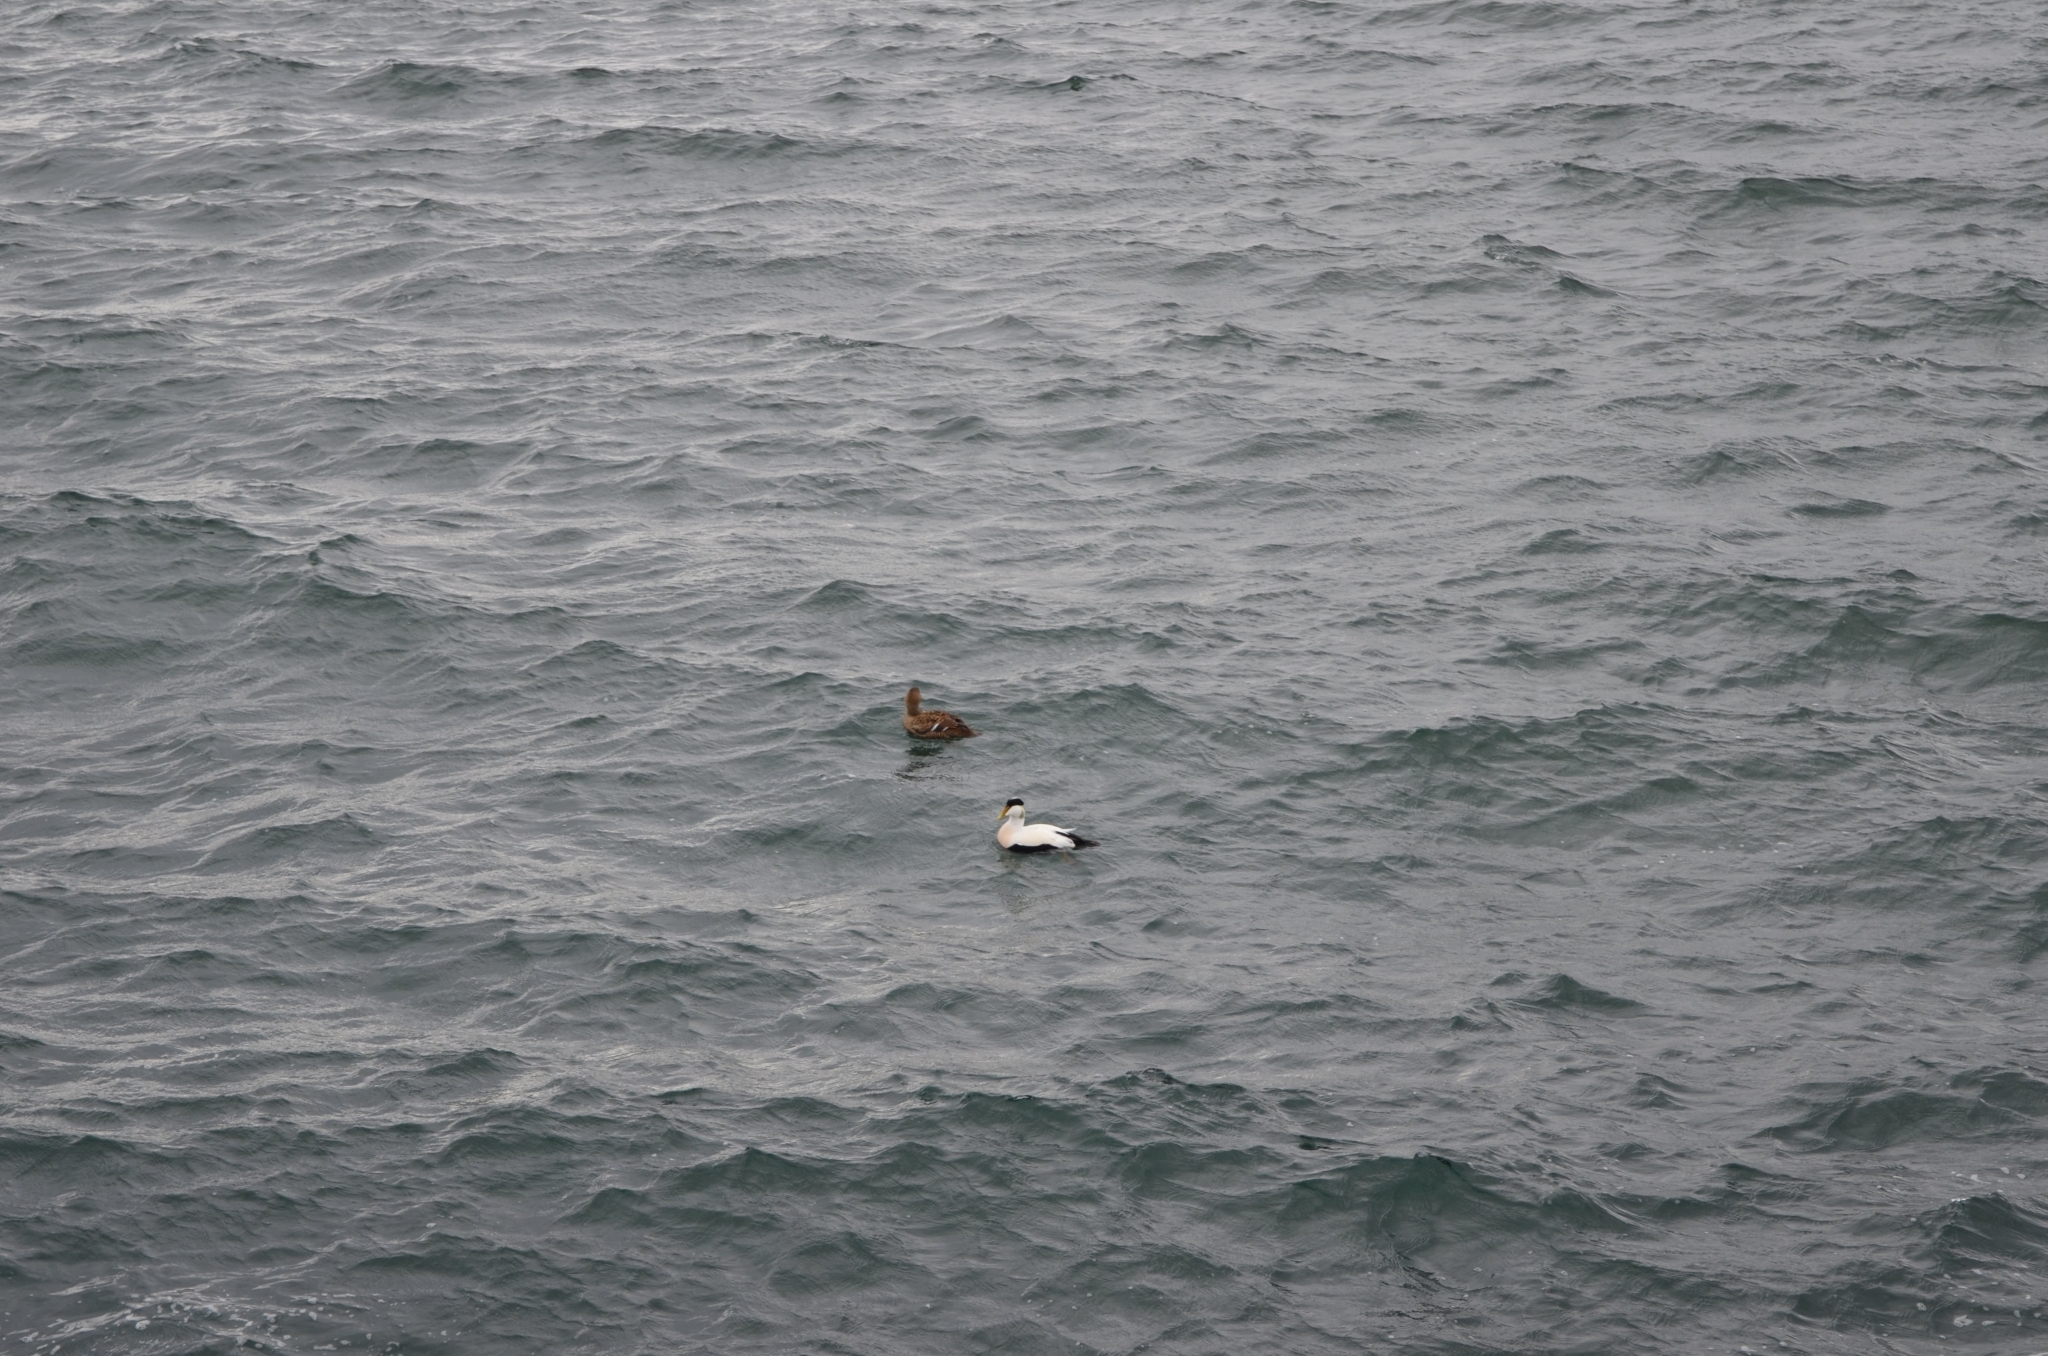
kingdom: Animalia
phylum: Chordata
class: Aves
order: Anseriformes
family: Anatidae
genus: Somateria
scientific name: Somateria mollissima
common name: Common eider
